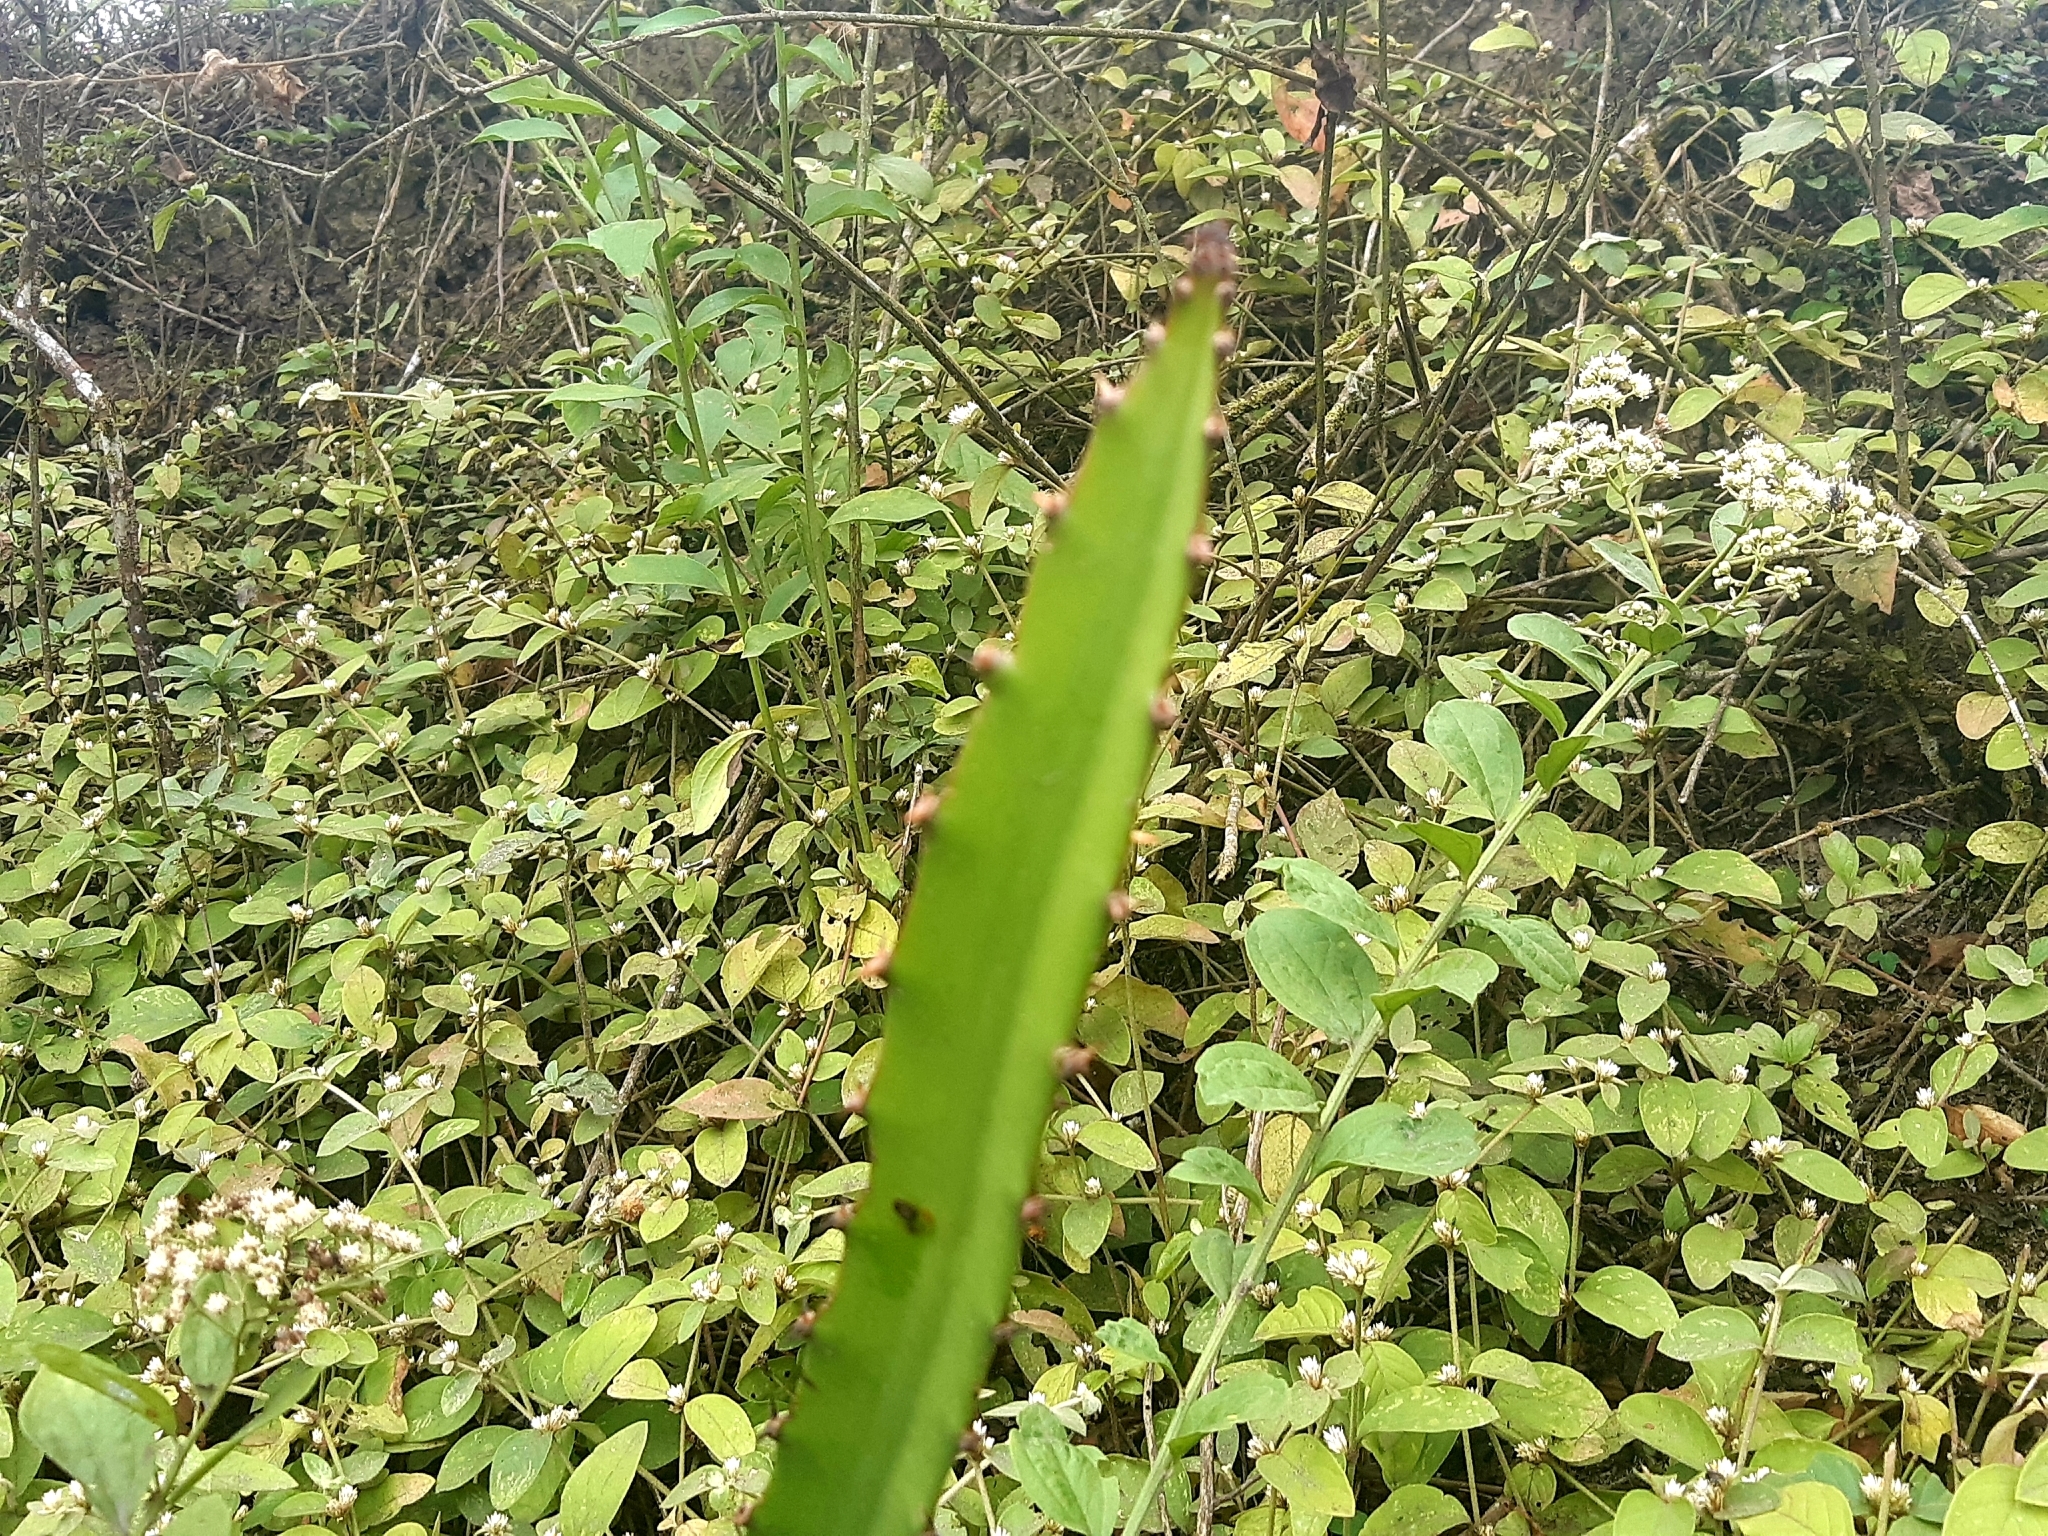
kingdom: Plantae
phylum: Tracheophyta
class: Magnoliopsida
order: Caryophyllales
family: Cactaceae
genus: Selenicereus
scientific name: Selenicereus monacanthus
